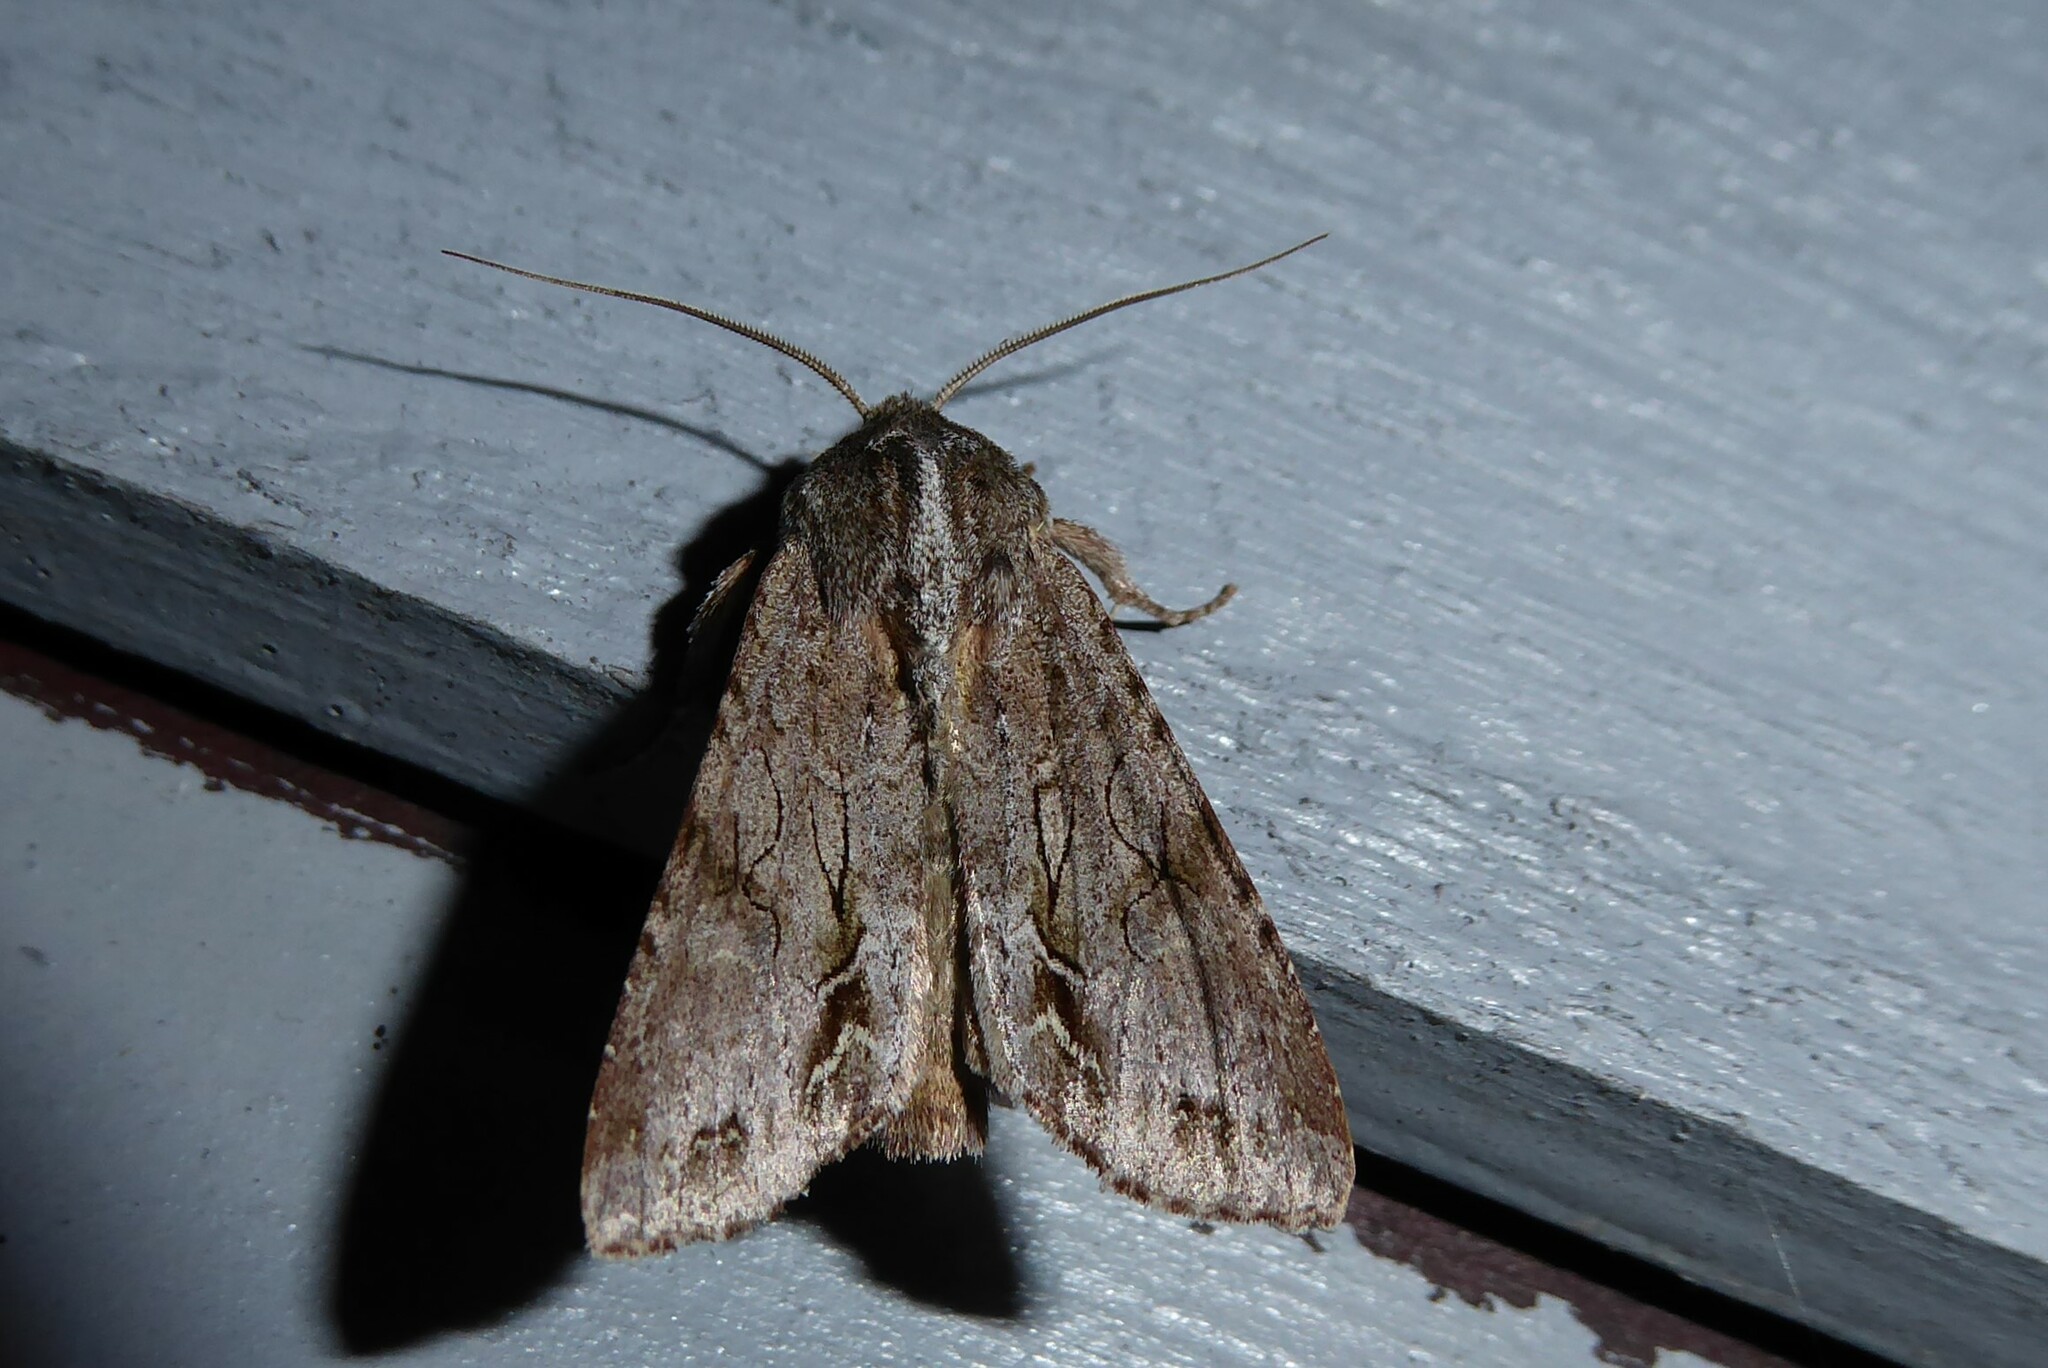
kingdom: Animalia
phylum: Arthropoda
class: Insecta
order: Lepidoptera
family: Noctuidae
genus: Ichneutica
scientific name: Ichneutica
